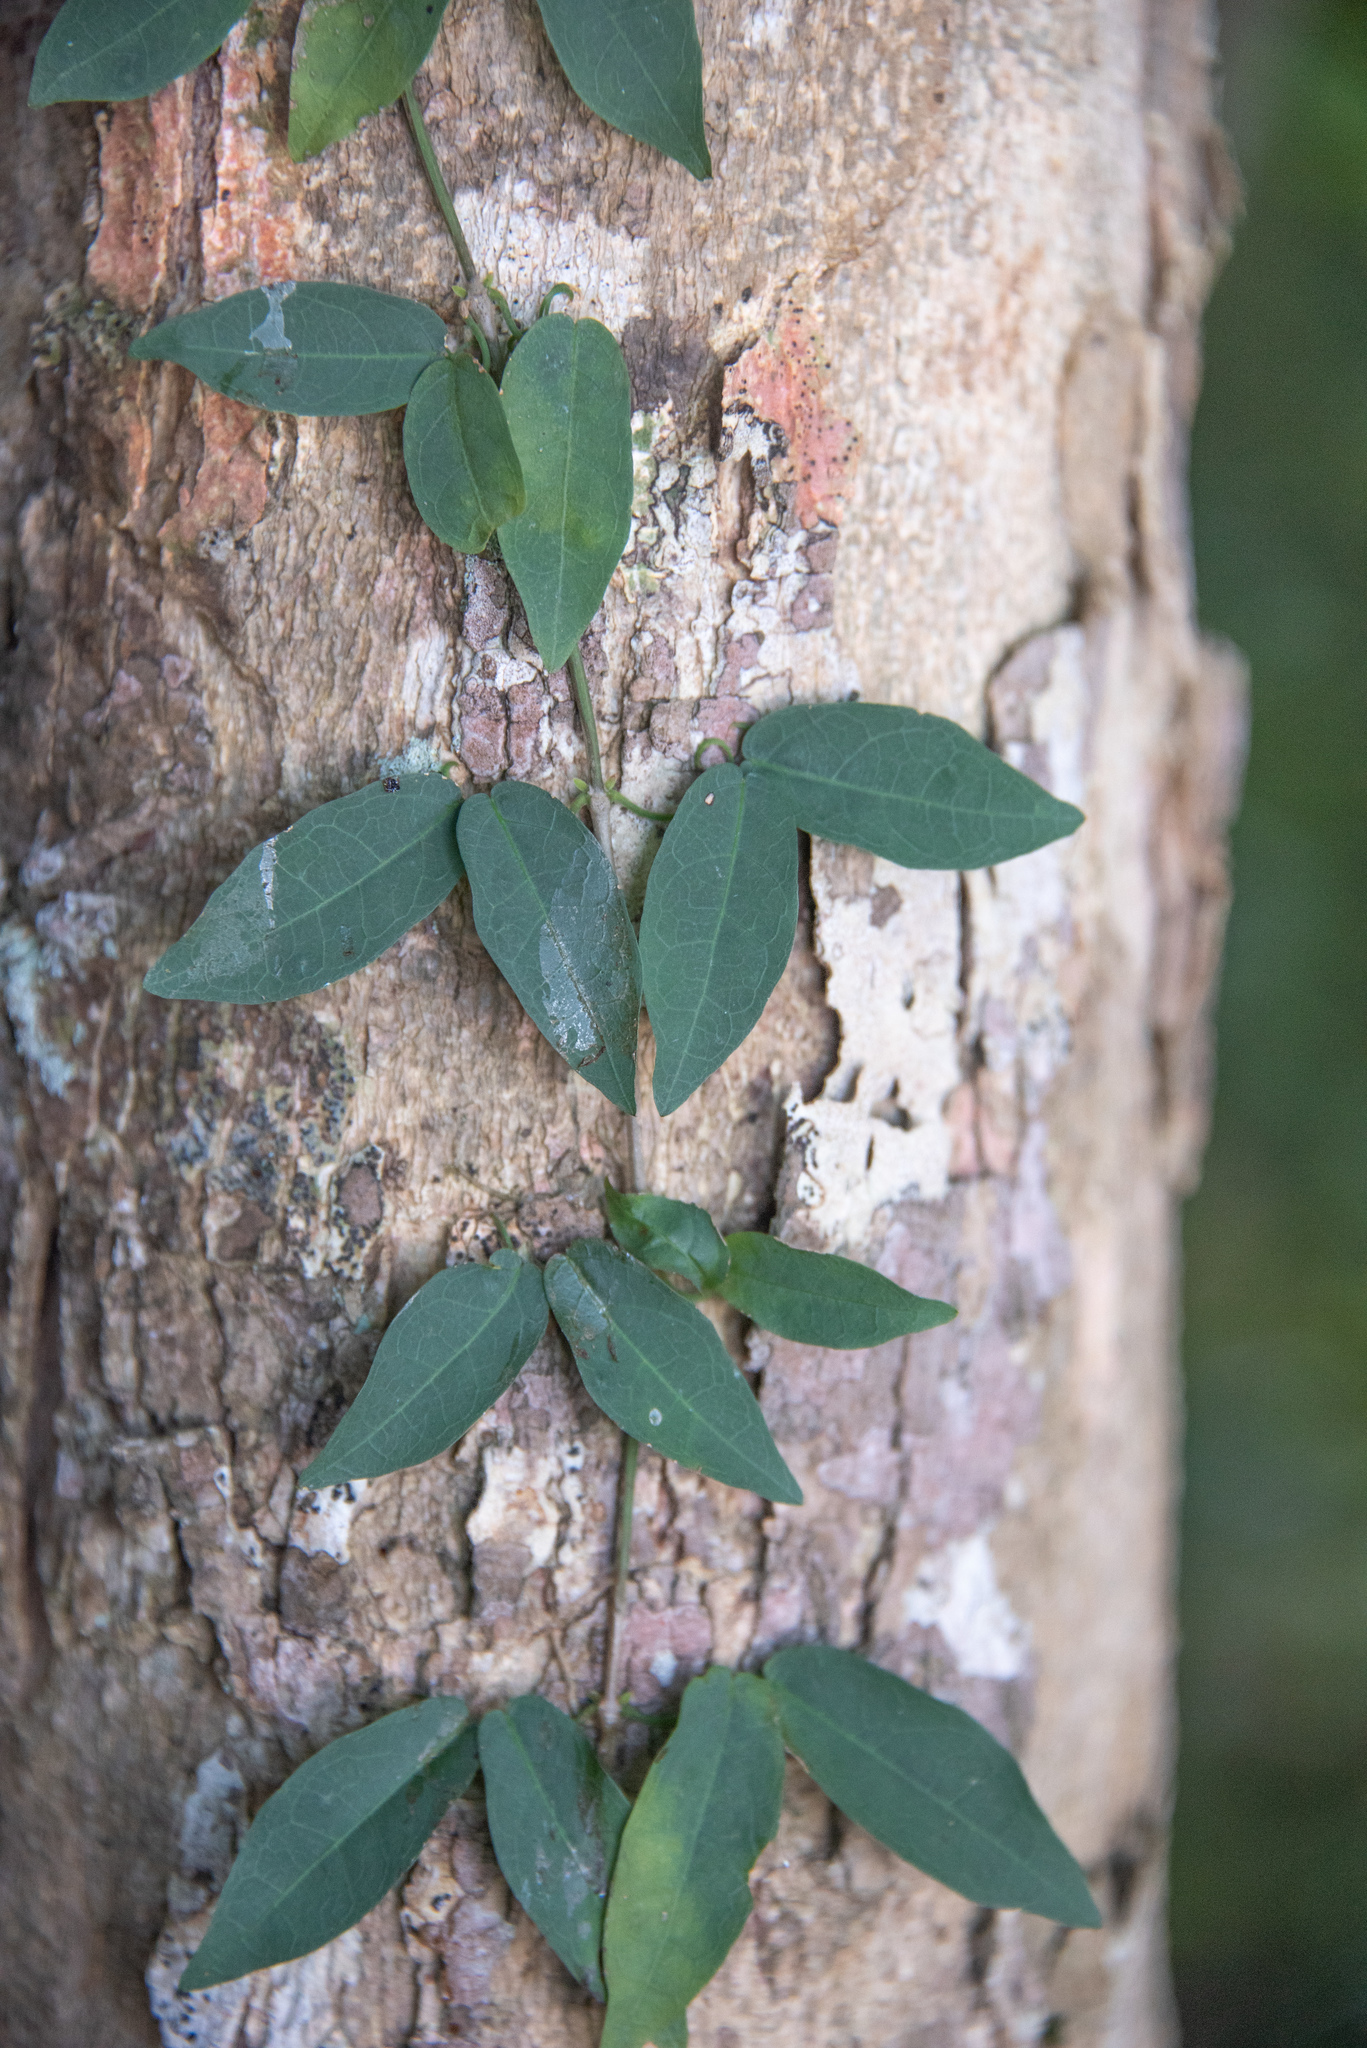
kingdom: Plantae
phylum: Tracheophyta
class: Magnoliopsida
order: Lamiales
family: Bignoniaceae
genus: Dolichandra
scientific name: Dolichandra unguis-cati
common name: Catclaw vine
